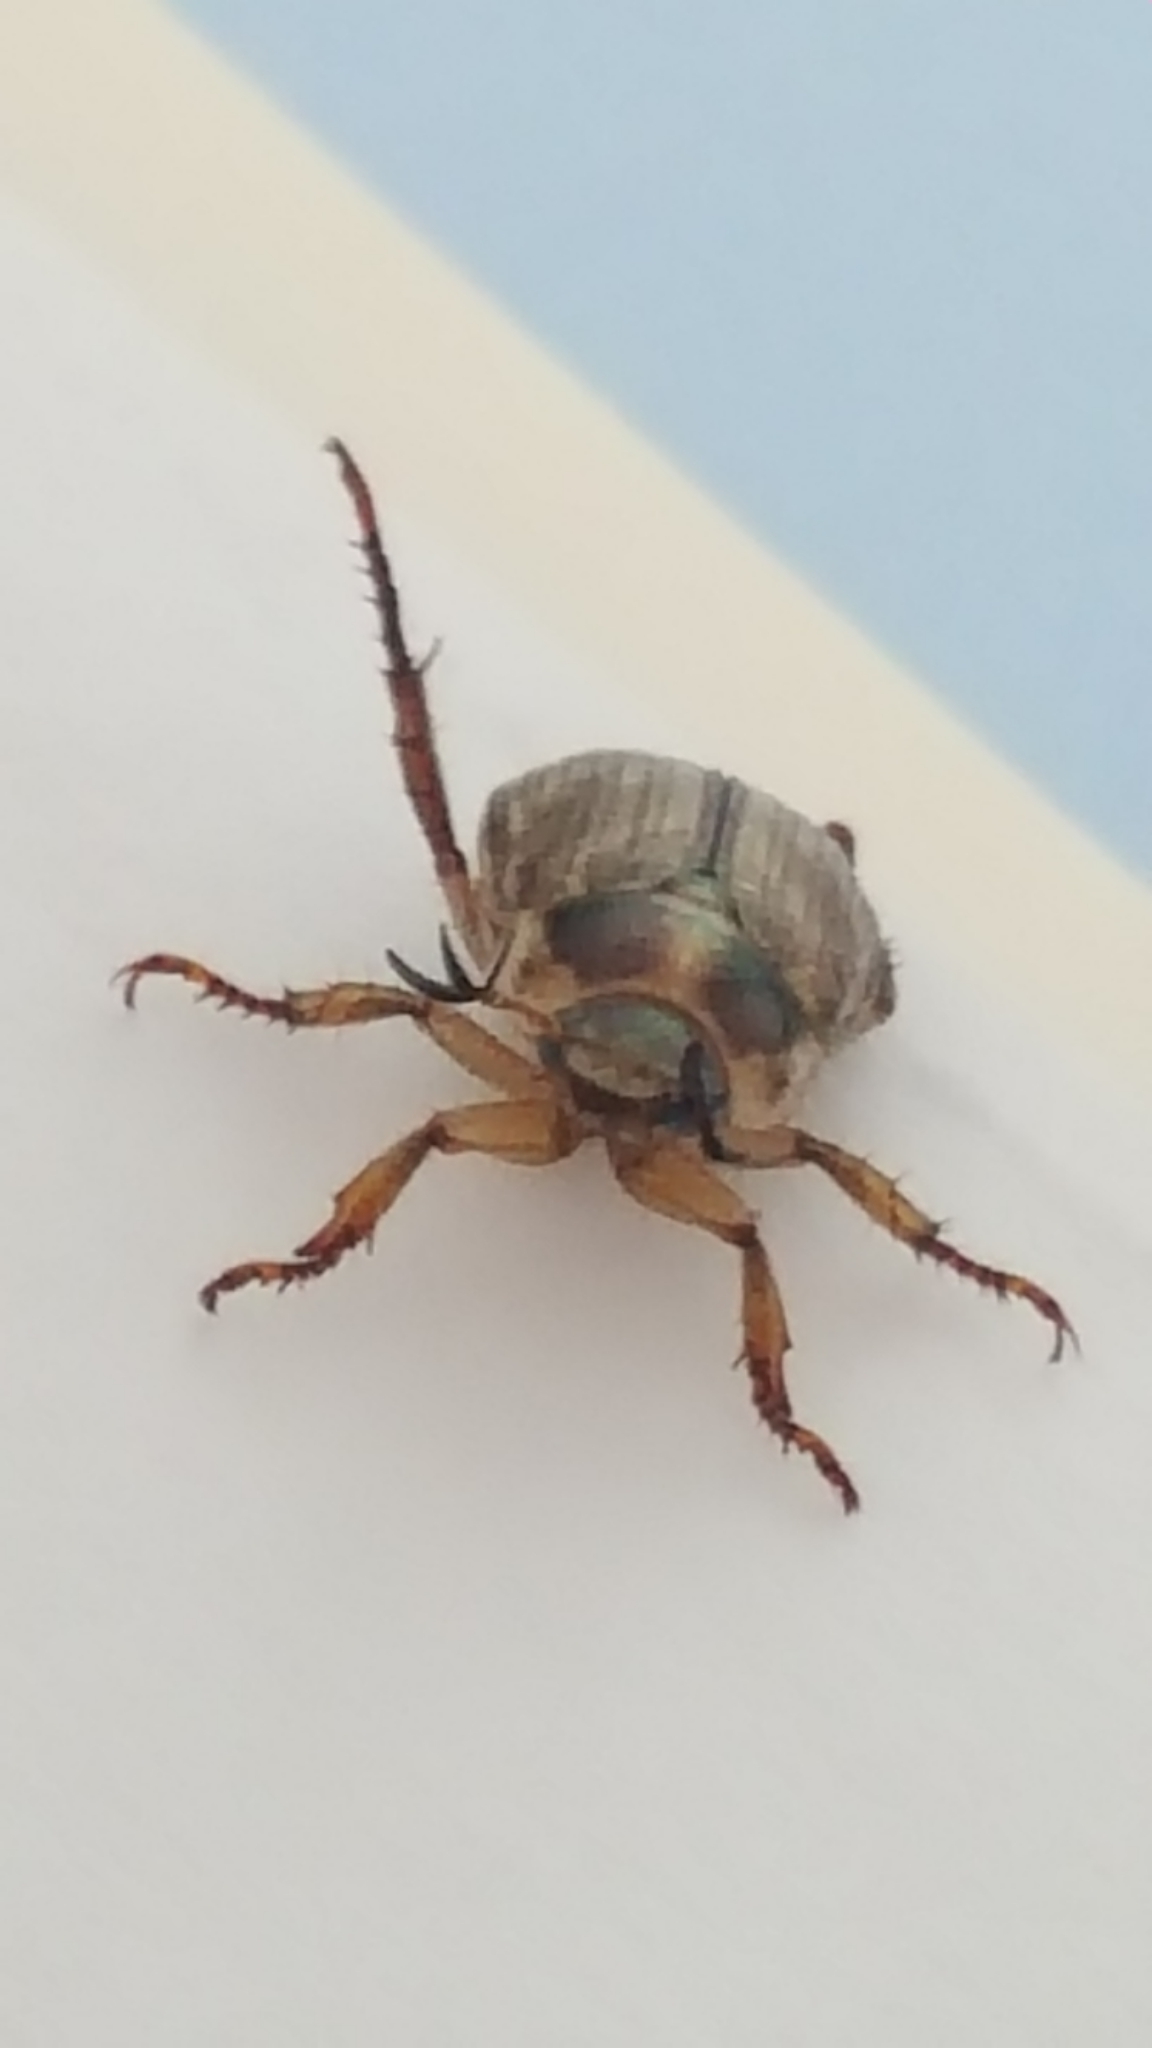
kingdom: Animalia
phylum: Arthropoda
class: Insecta
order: Coleoptera
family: Scarabaeidae
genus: Exomala
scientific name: Exomala orientalis
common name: Oriental beetle
